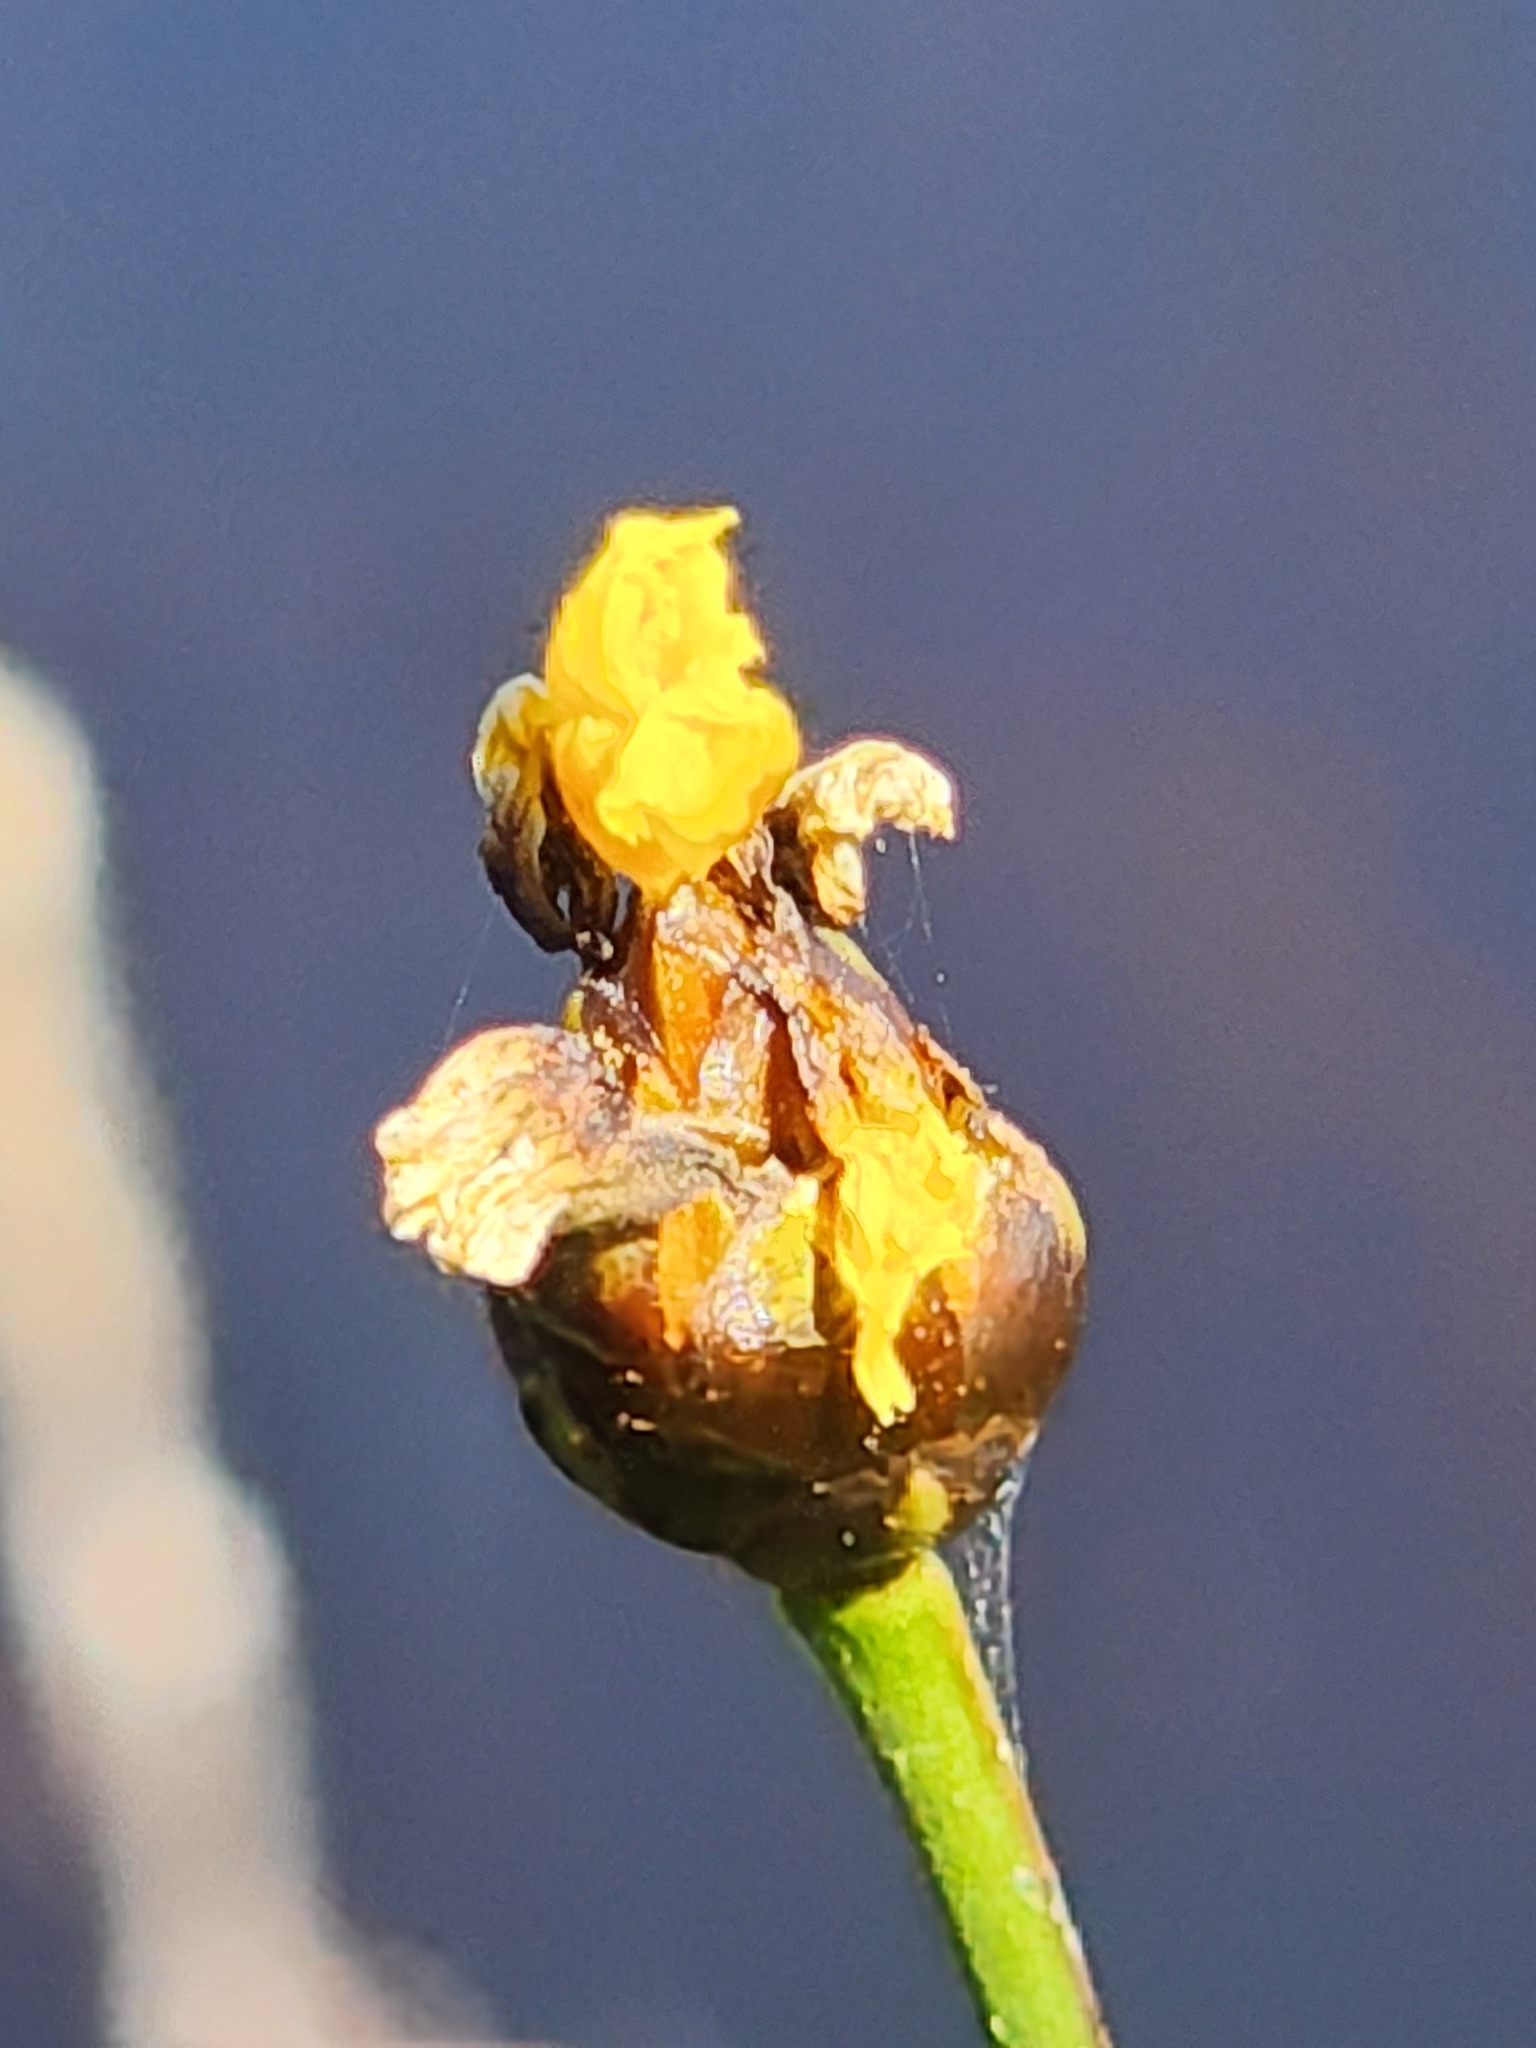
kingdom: Plantae
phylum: Tracheophyta
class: Liliopsida
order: Poales
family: Xyridaceae
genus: Xyris
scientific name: Xyris montana
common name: Northern yellow-eyed-grass
